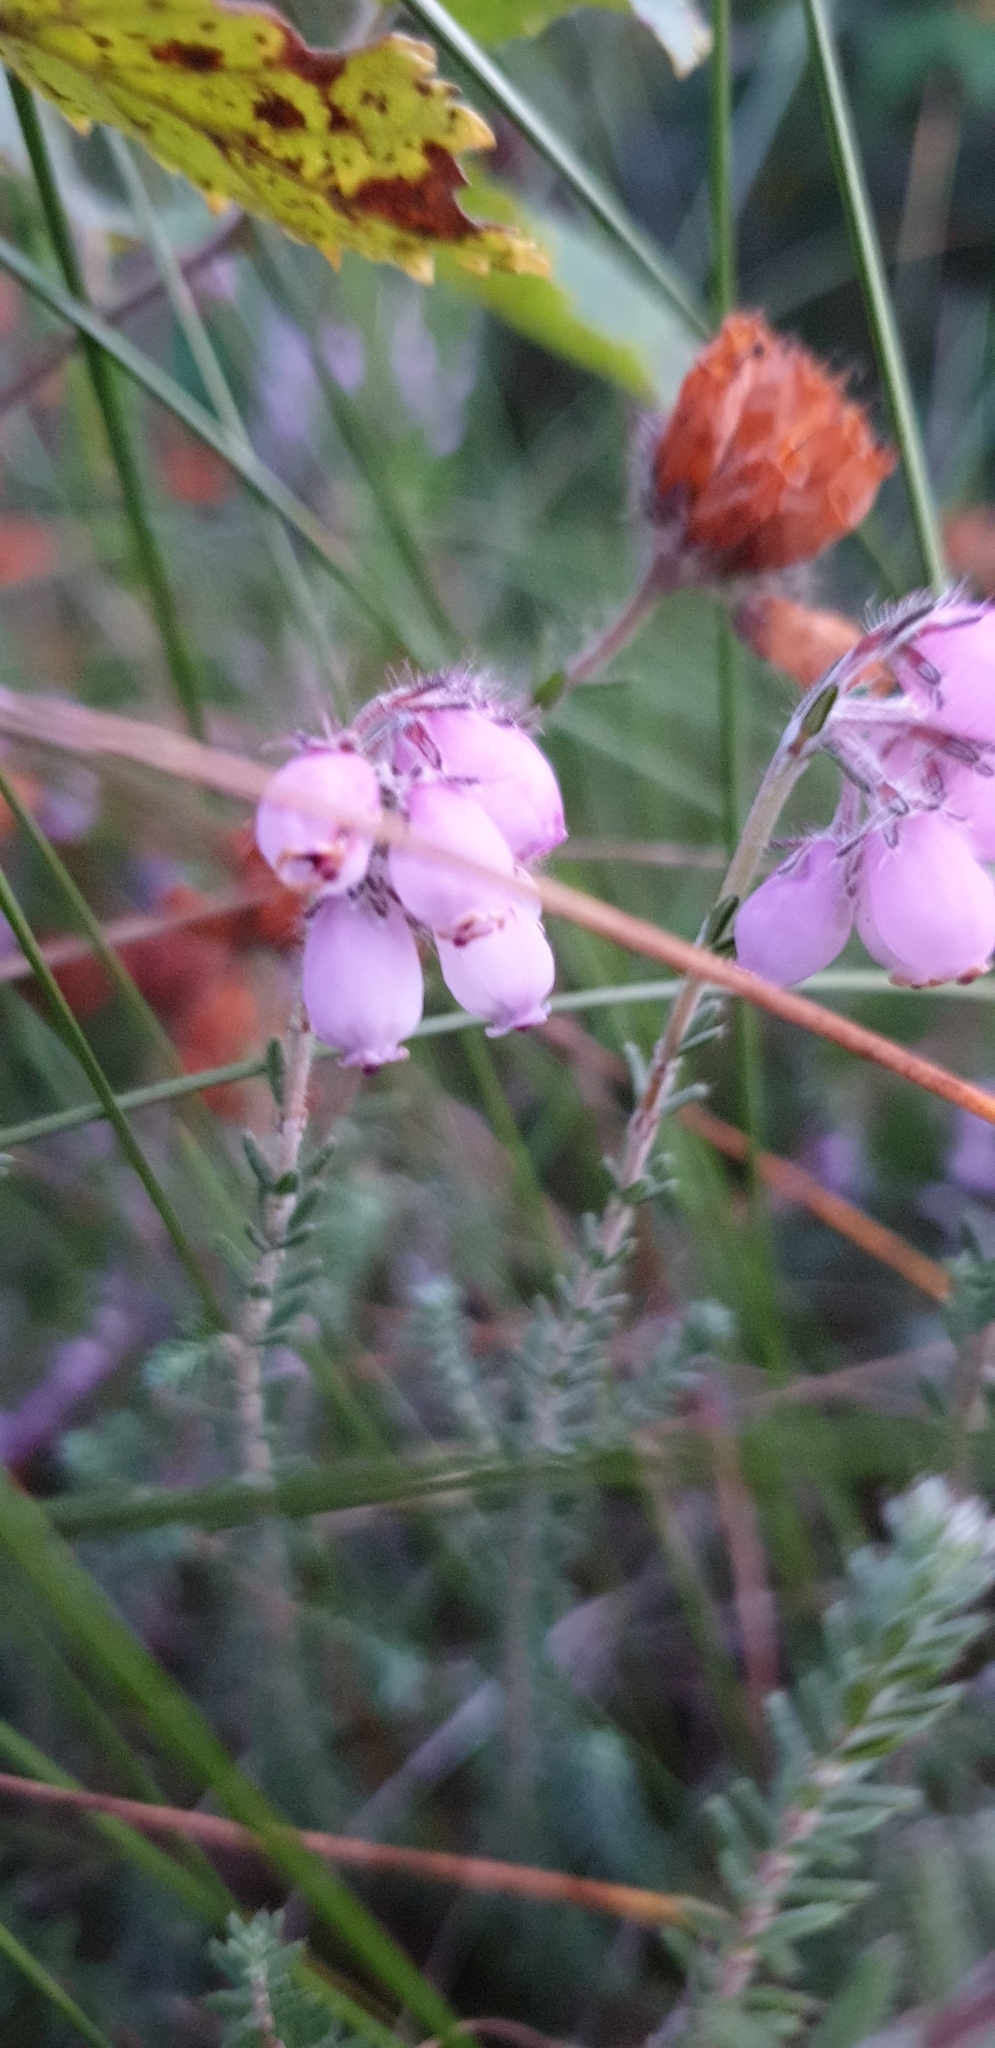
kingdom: Plantae
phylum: Tracheophyta
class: Magnoliopsida
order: Ericales
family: Ericaceae
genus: Erica
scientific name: Erica tetralix
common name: Cross-leaved heath
